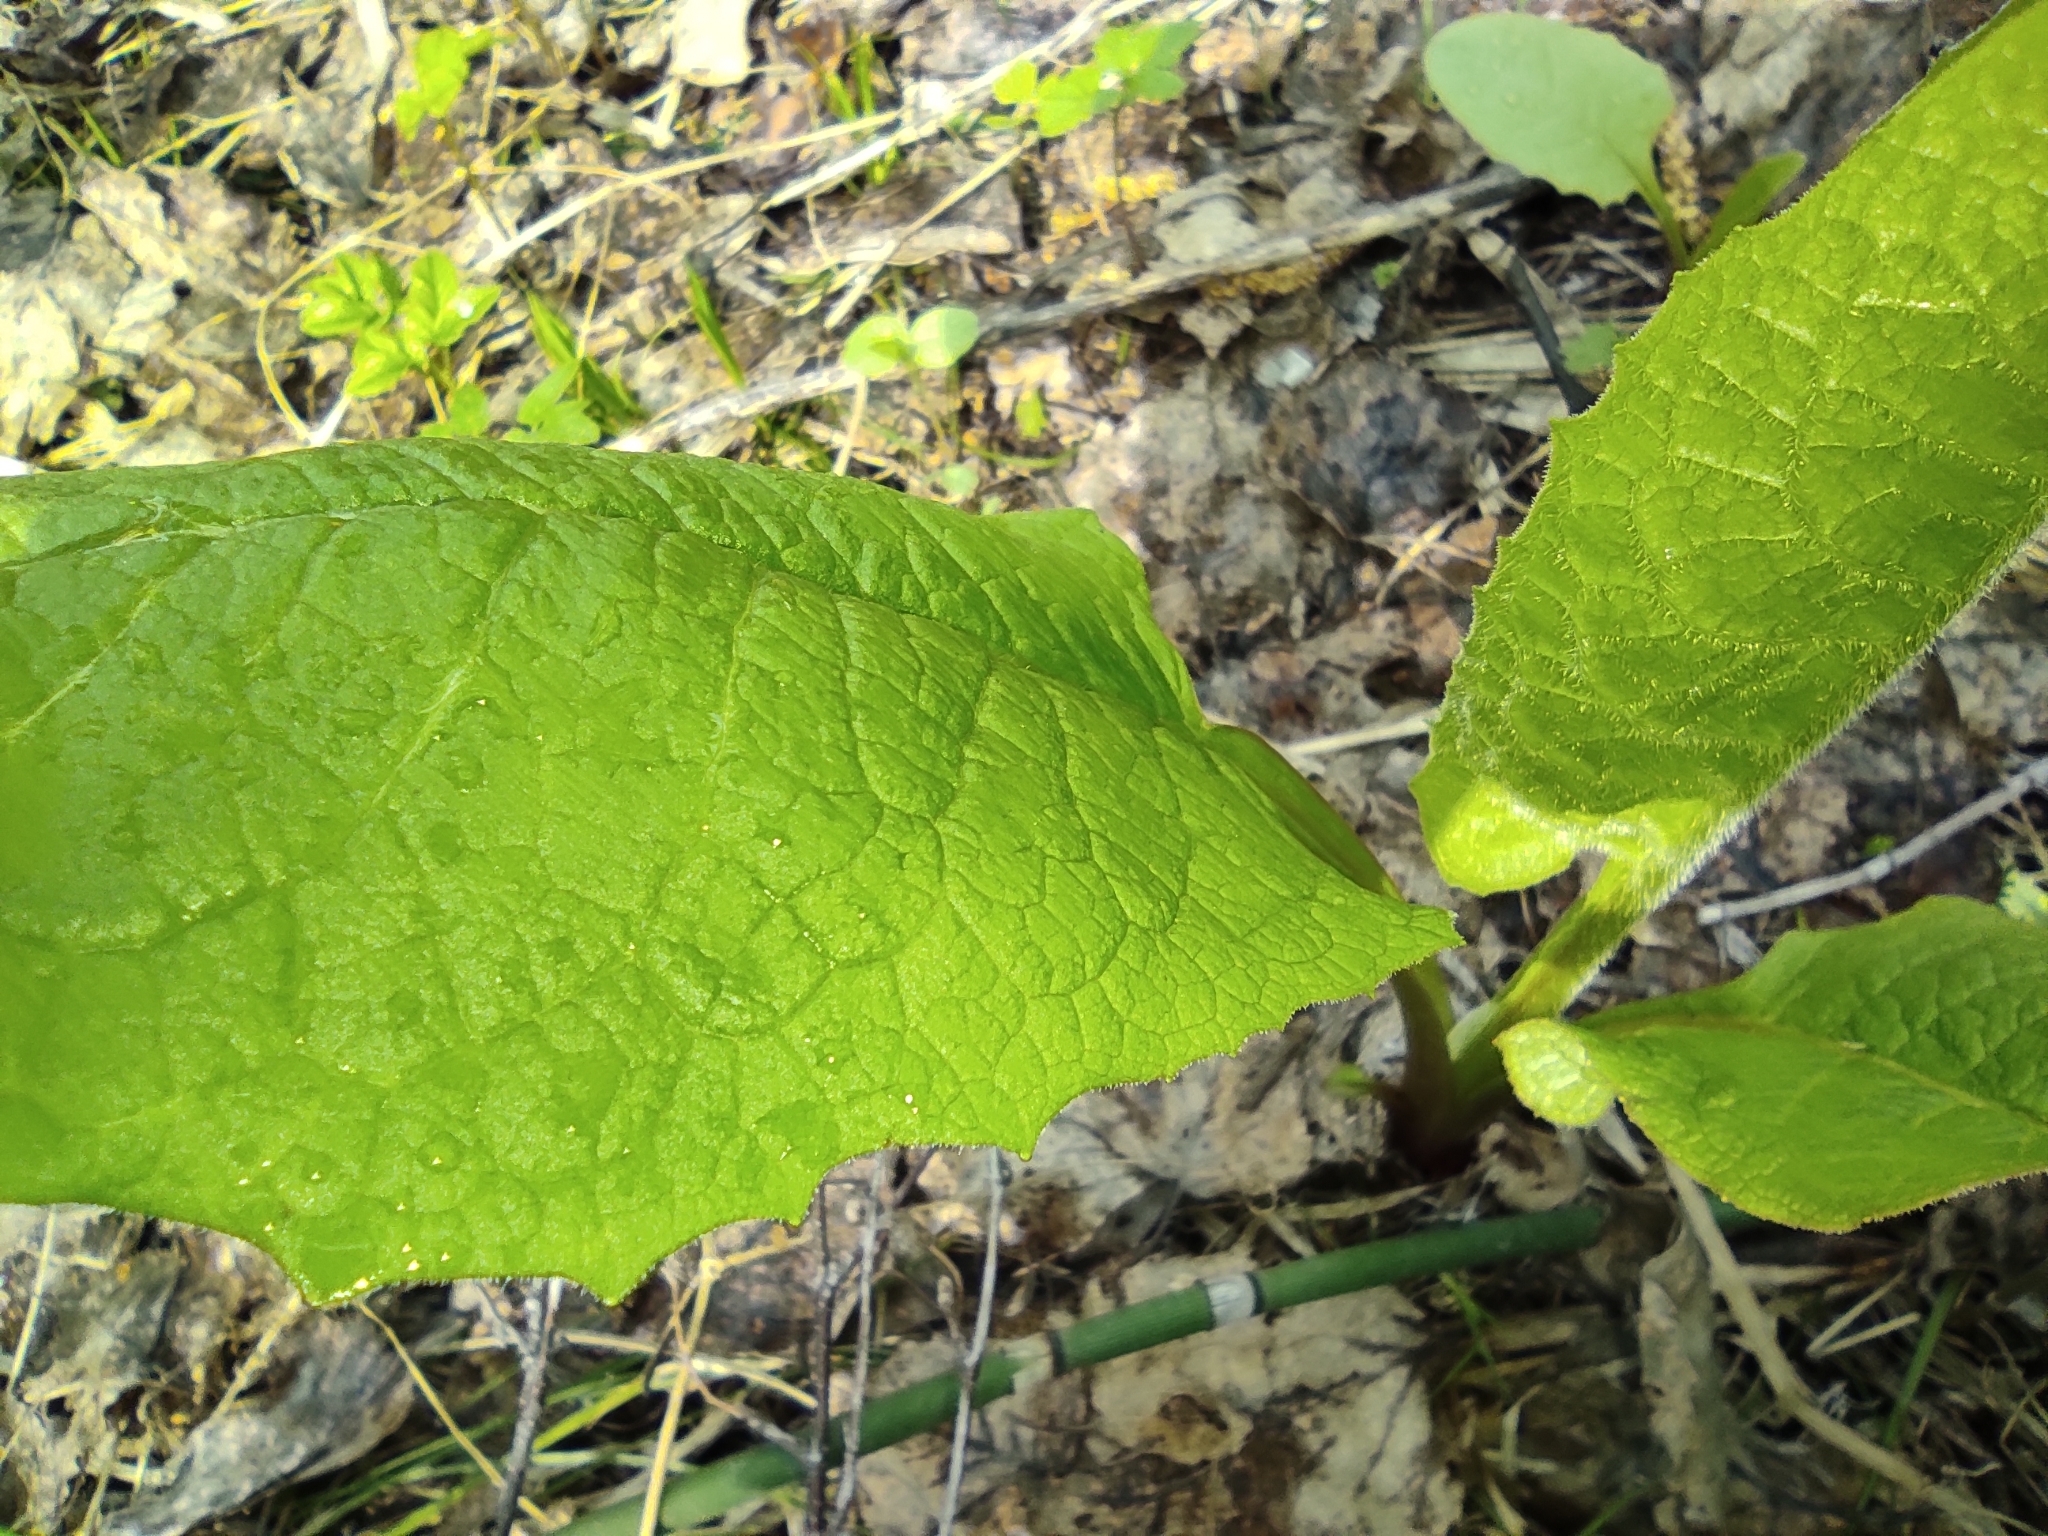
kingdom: Plantae
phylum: Tracheophyta
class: Magnoliopsida
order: Asterales
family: Asteraceae
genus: Crepis
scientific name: Crepis sibirica
